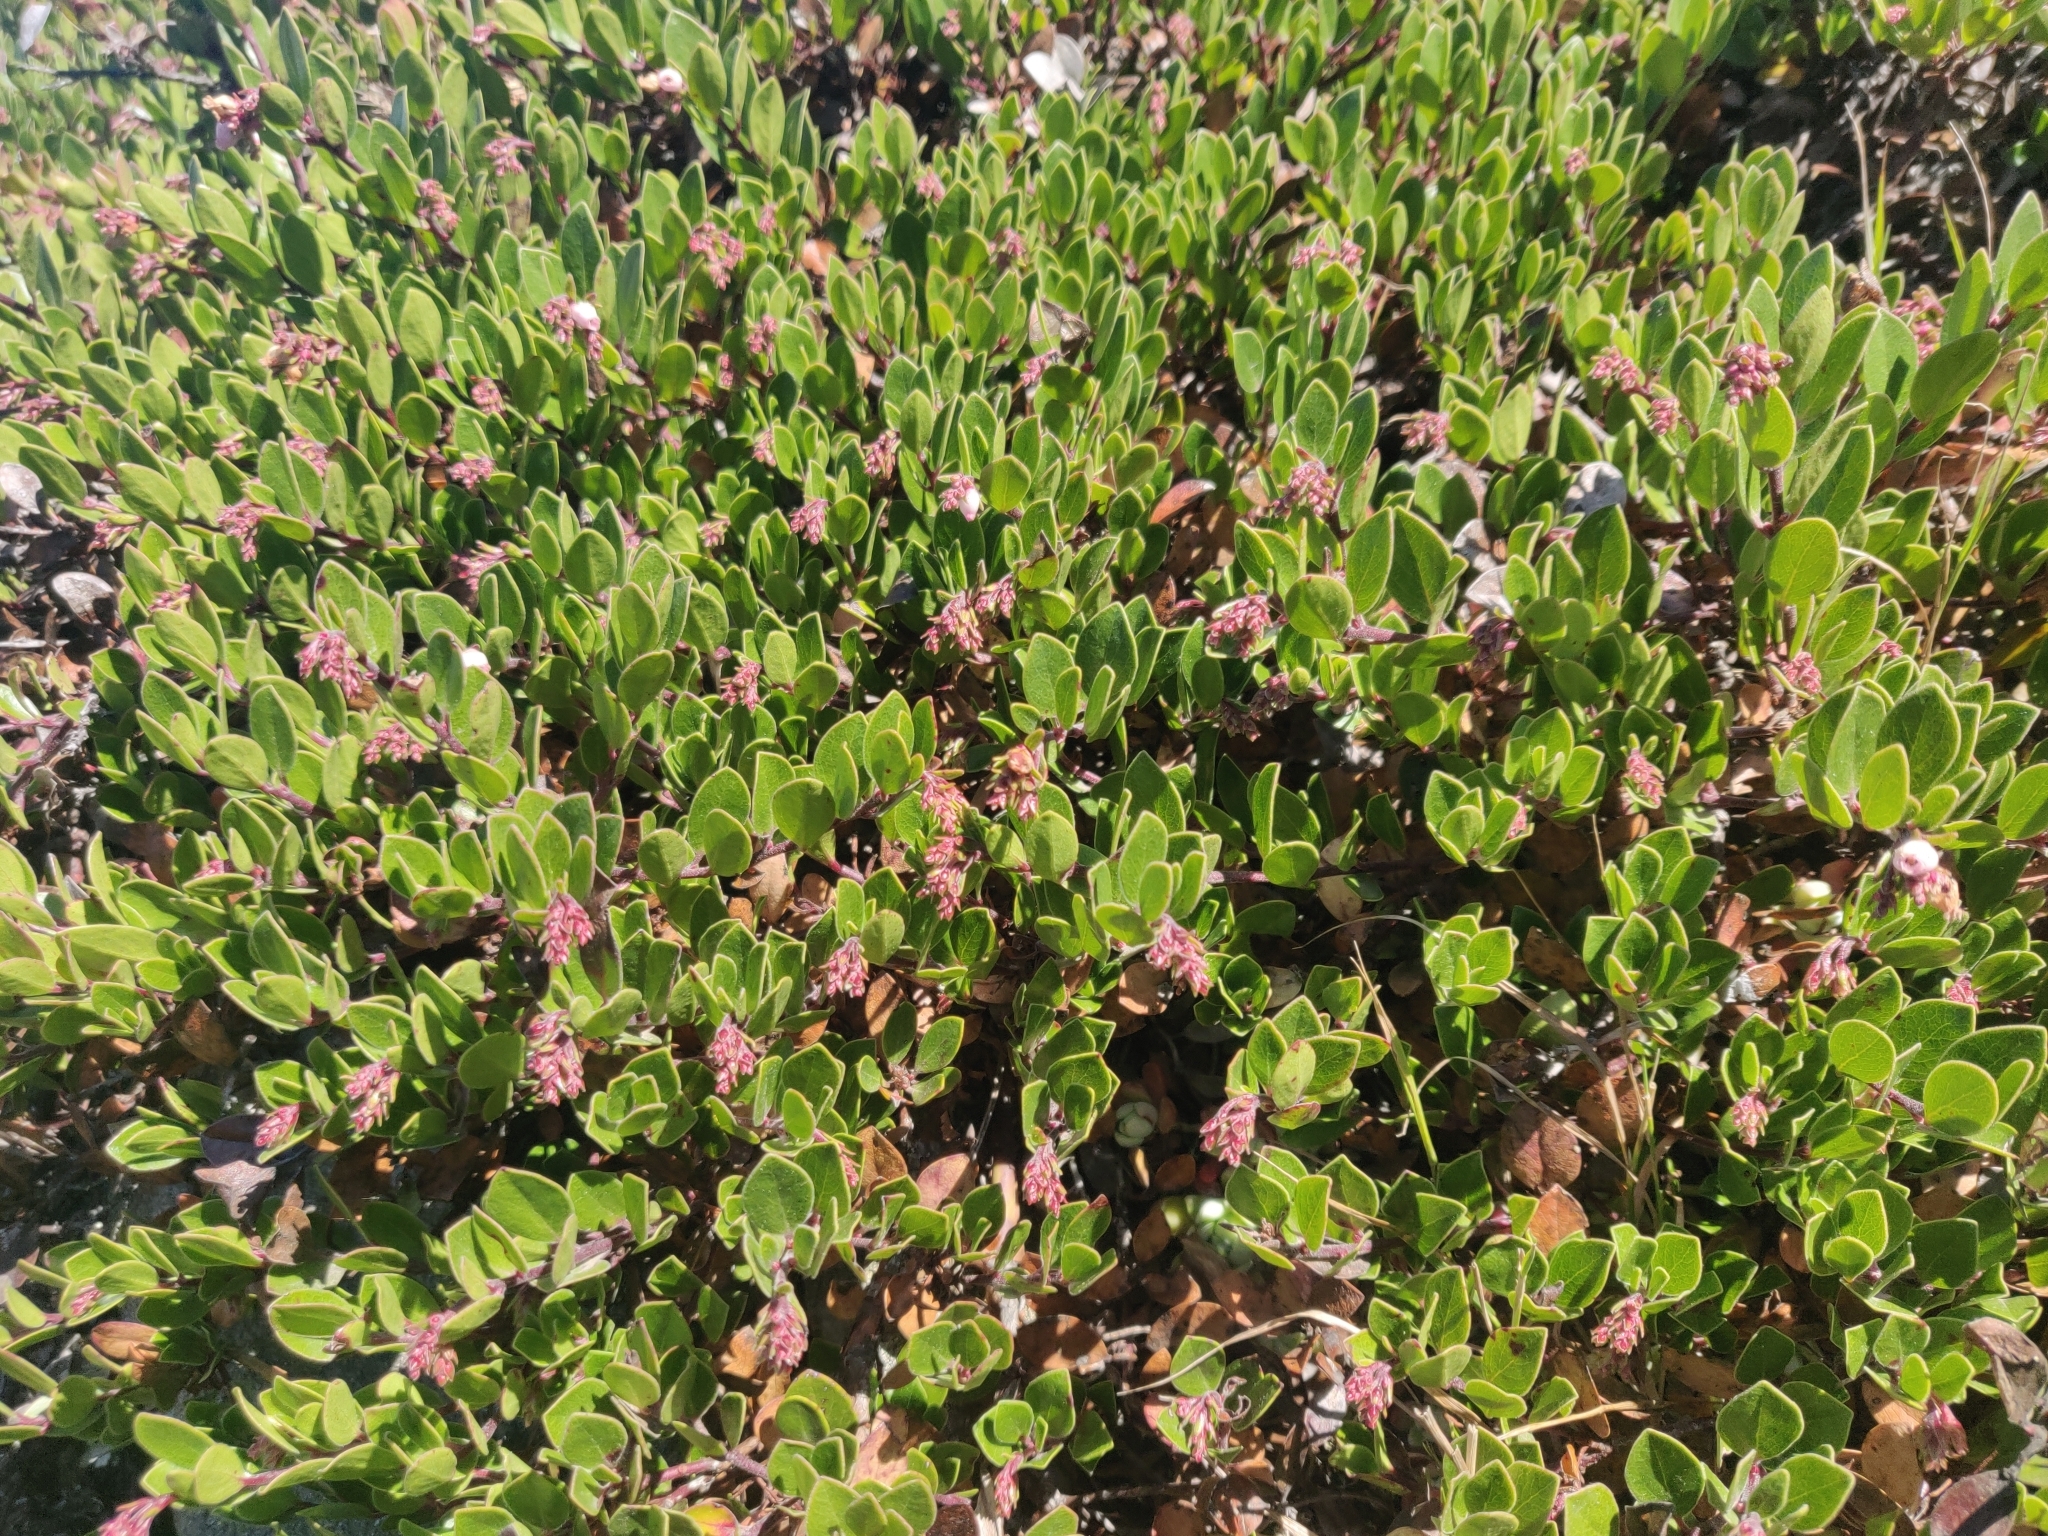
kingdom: Plantae
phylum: Tracheophyta
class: Magnoliopsida
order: Ericales
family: Ericaceae
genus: Arctostaphylos
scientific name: Arctostaphylos uva-ursi
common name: Bearberry
